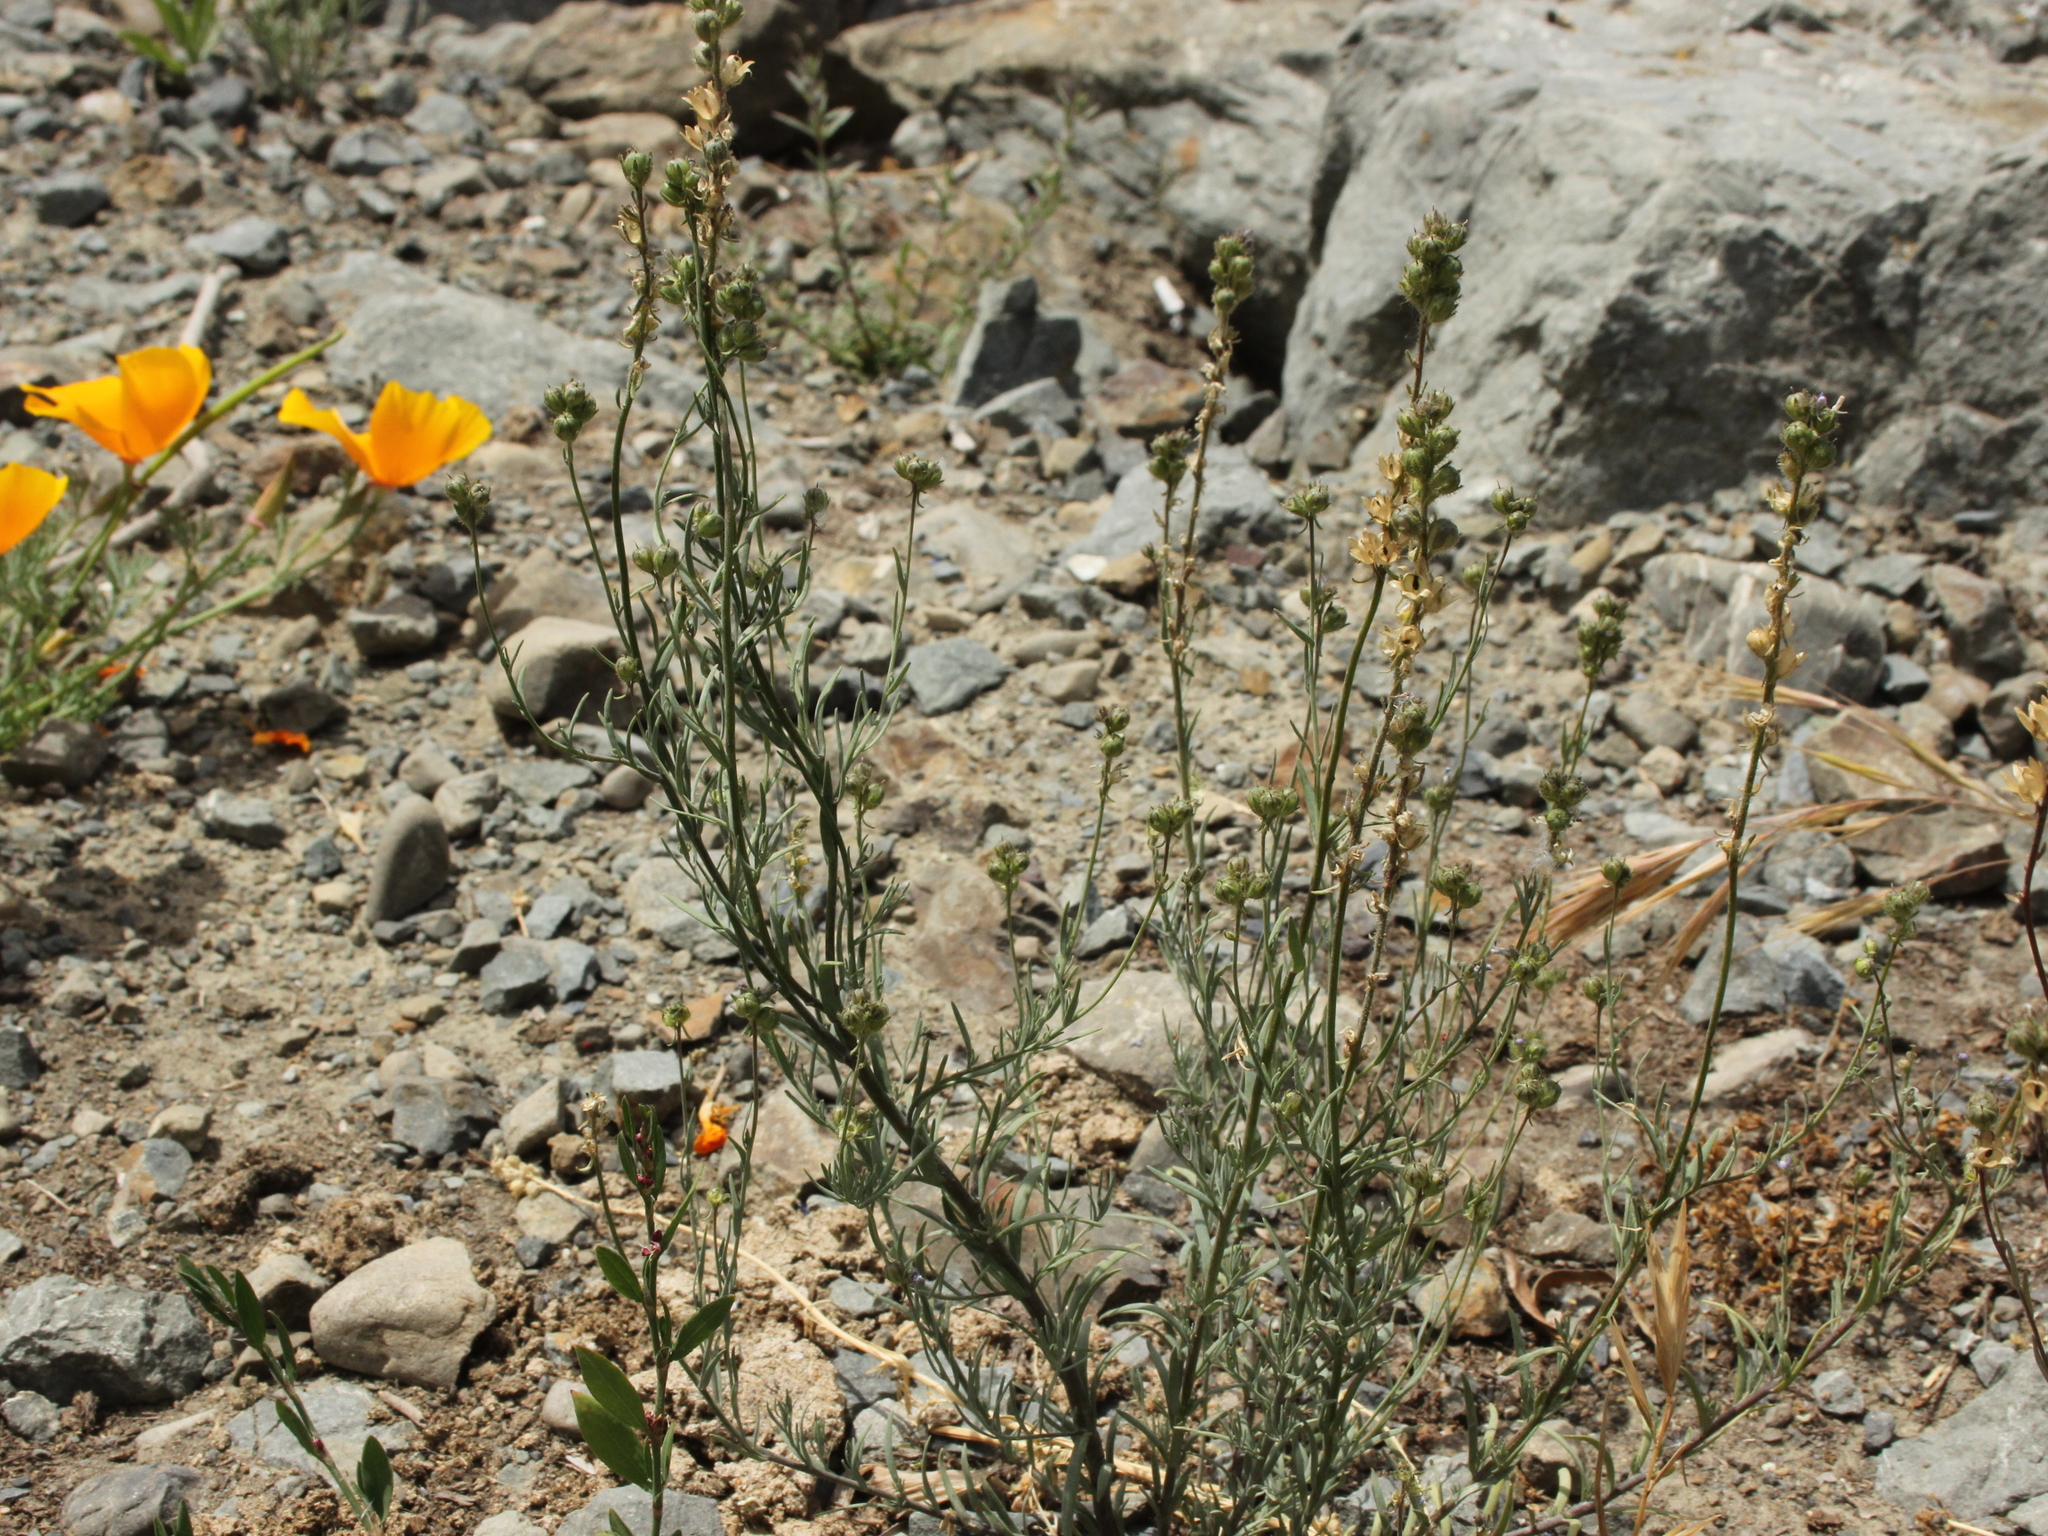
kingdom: Plantae
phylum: Tracheophyta
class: Magnoliopsida
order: Lamiales
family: Plantaginaceae
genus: Linaria
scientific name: Linaria arvensis
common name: Corn toadflax
